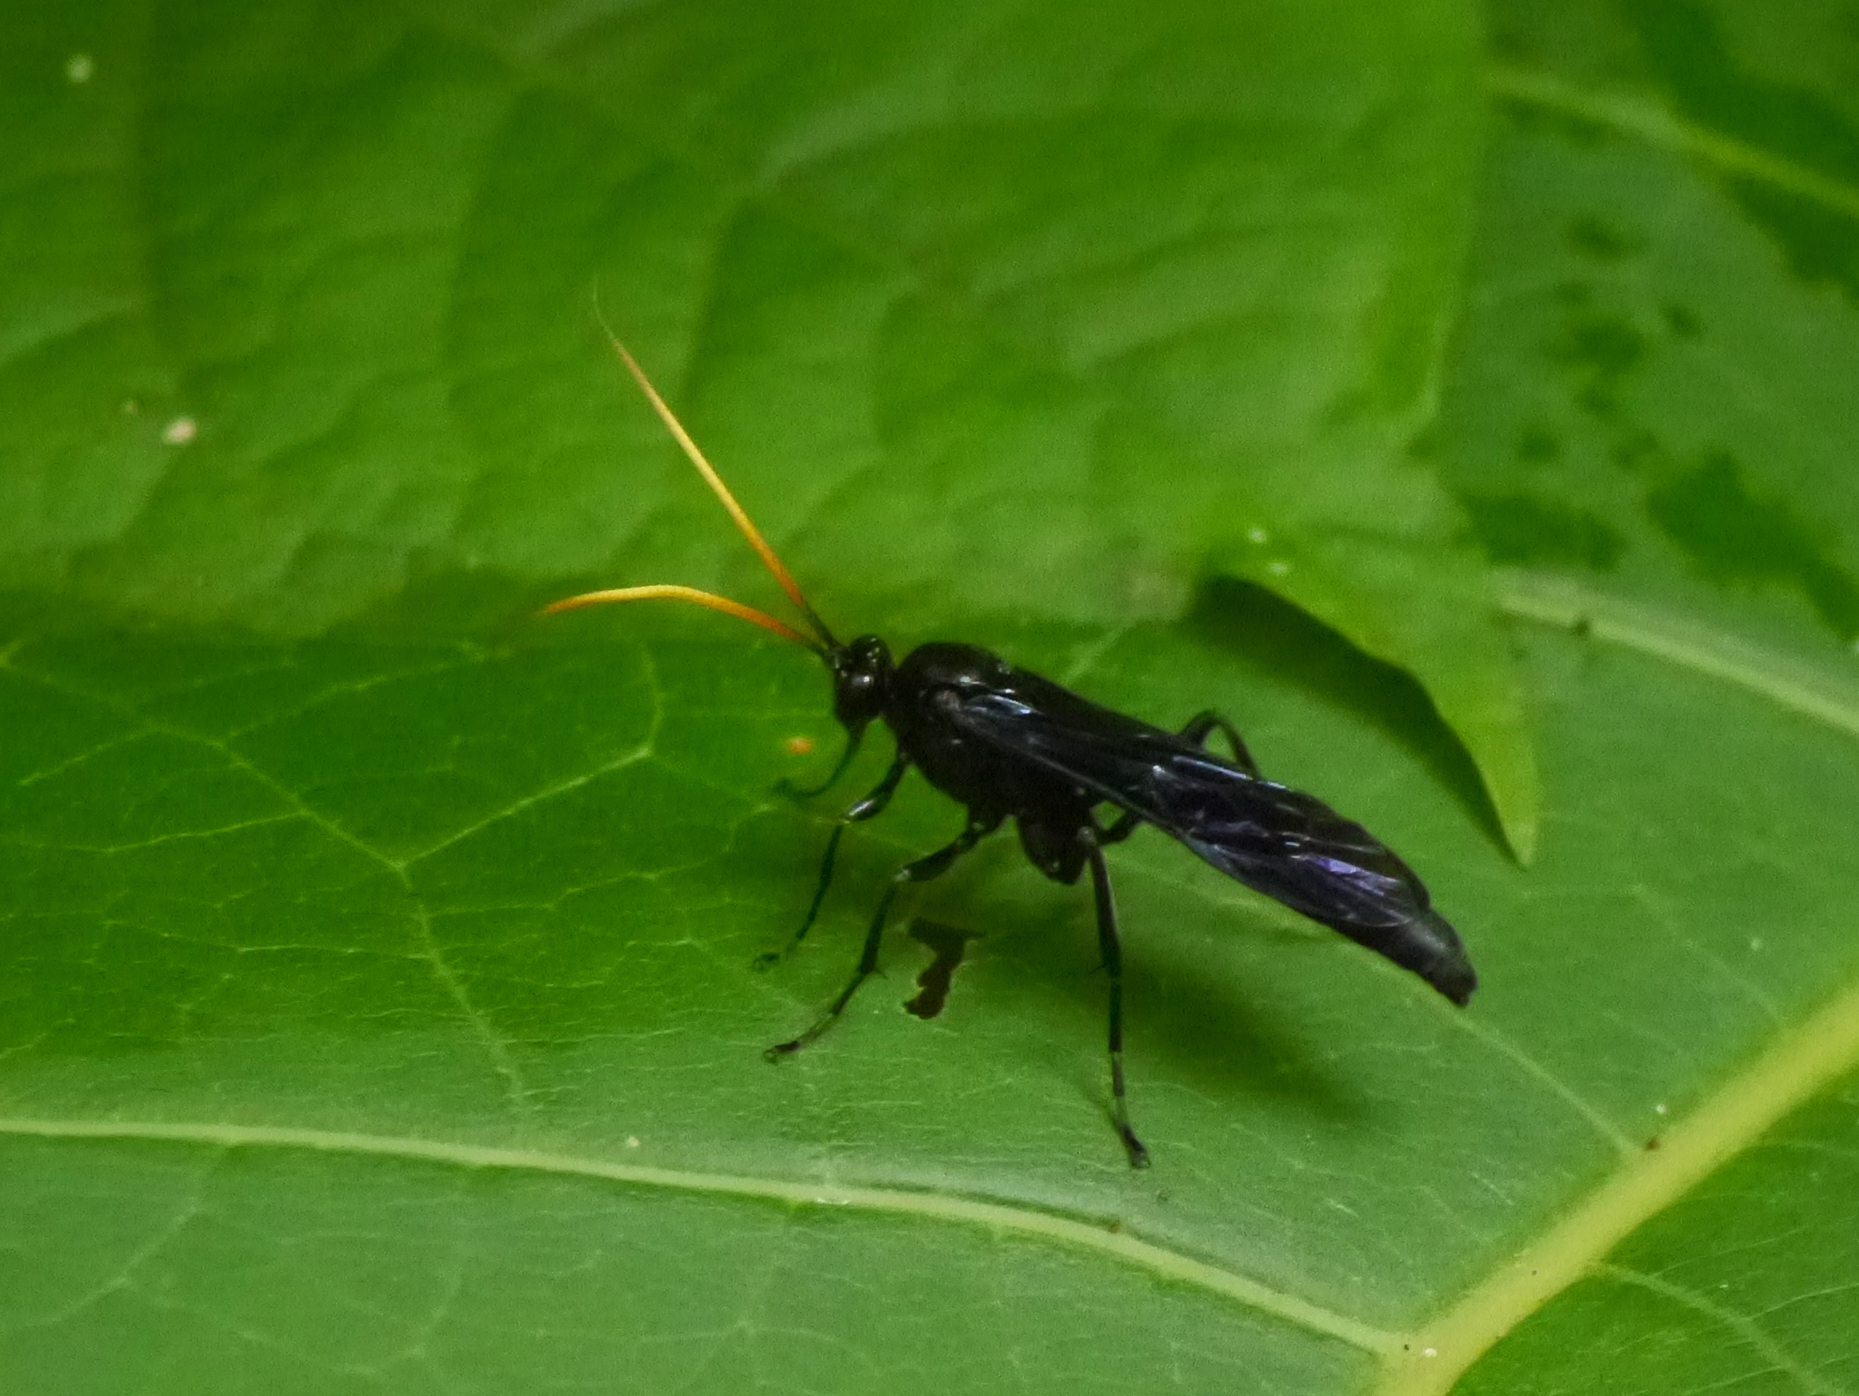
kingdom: Animalia
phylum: Arthropoda
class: Insecta
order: Hymenoptera
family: Ichneumonidae
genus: Gnamptopelta
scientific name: Gnamptopelta obsidianator
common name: Bent-shielded besieger wasp
